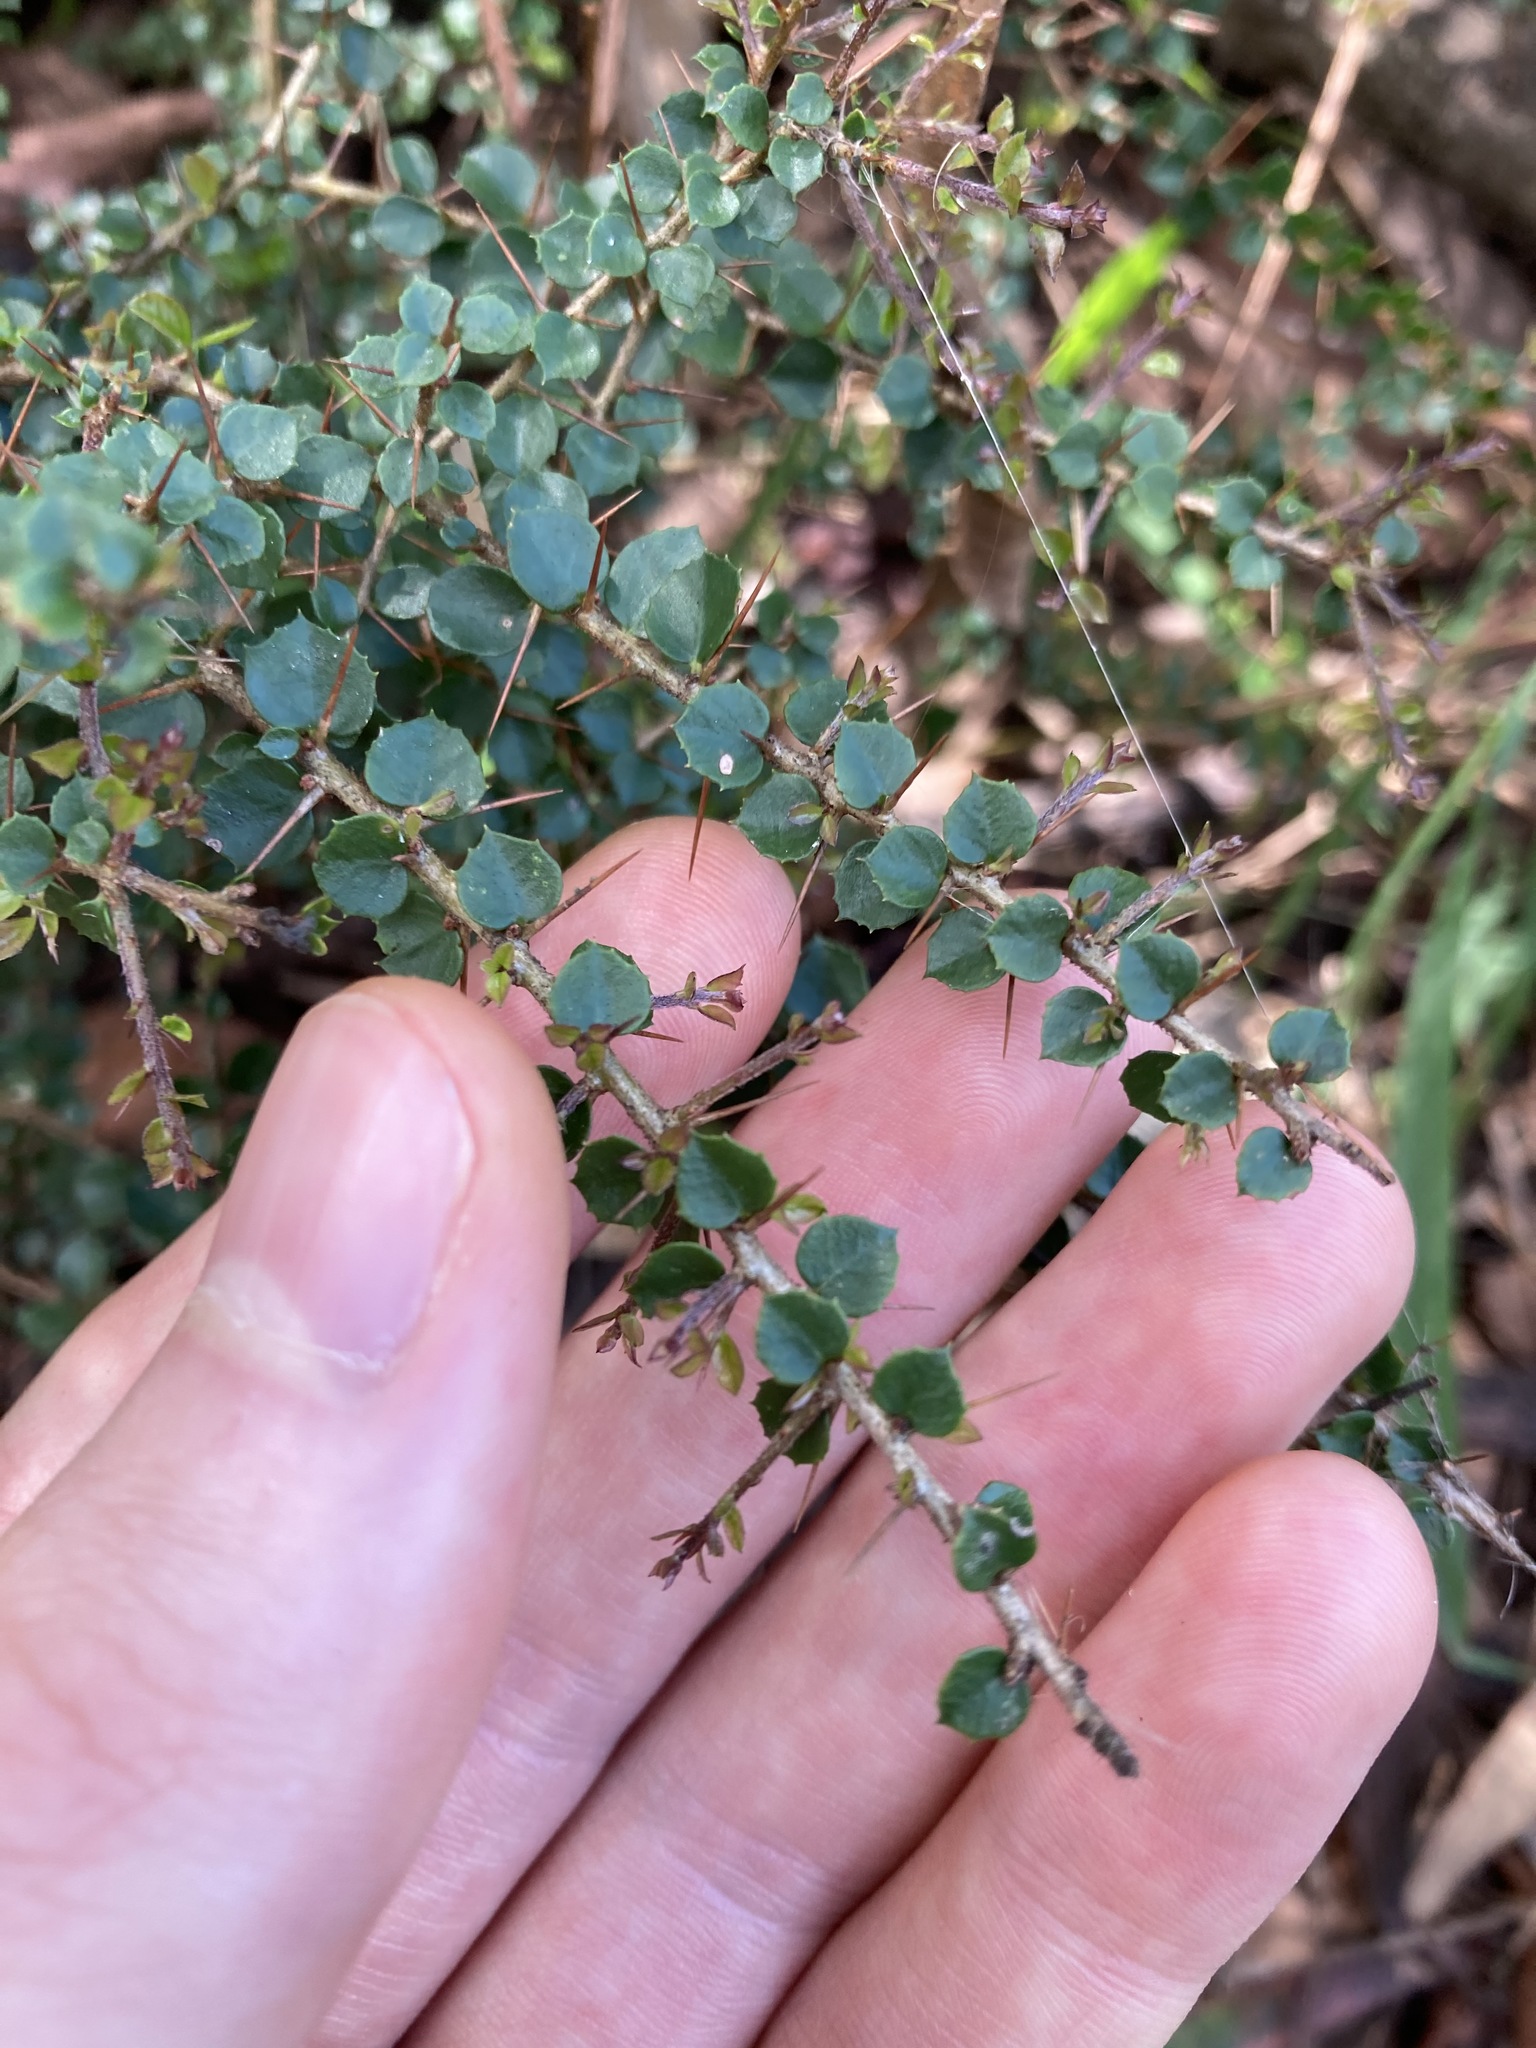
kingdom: Plantae
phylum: Tracheophyta
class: Magnoliopsida
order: Apiales
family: Pittosporaceae
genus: Pittosporum
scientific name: Pittosporum multiflorum
